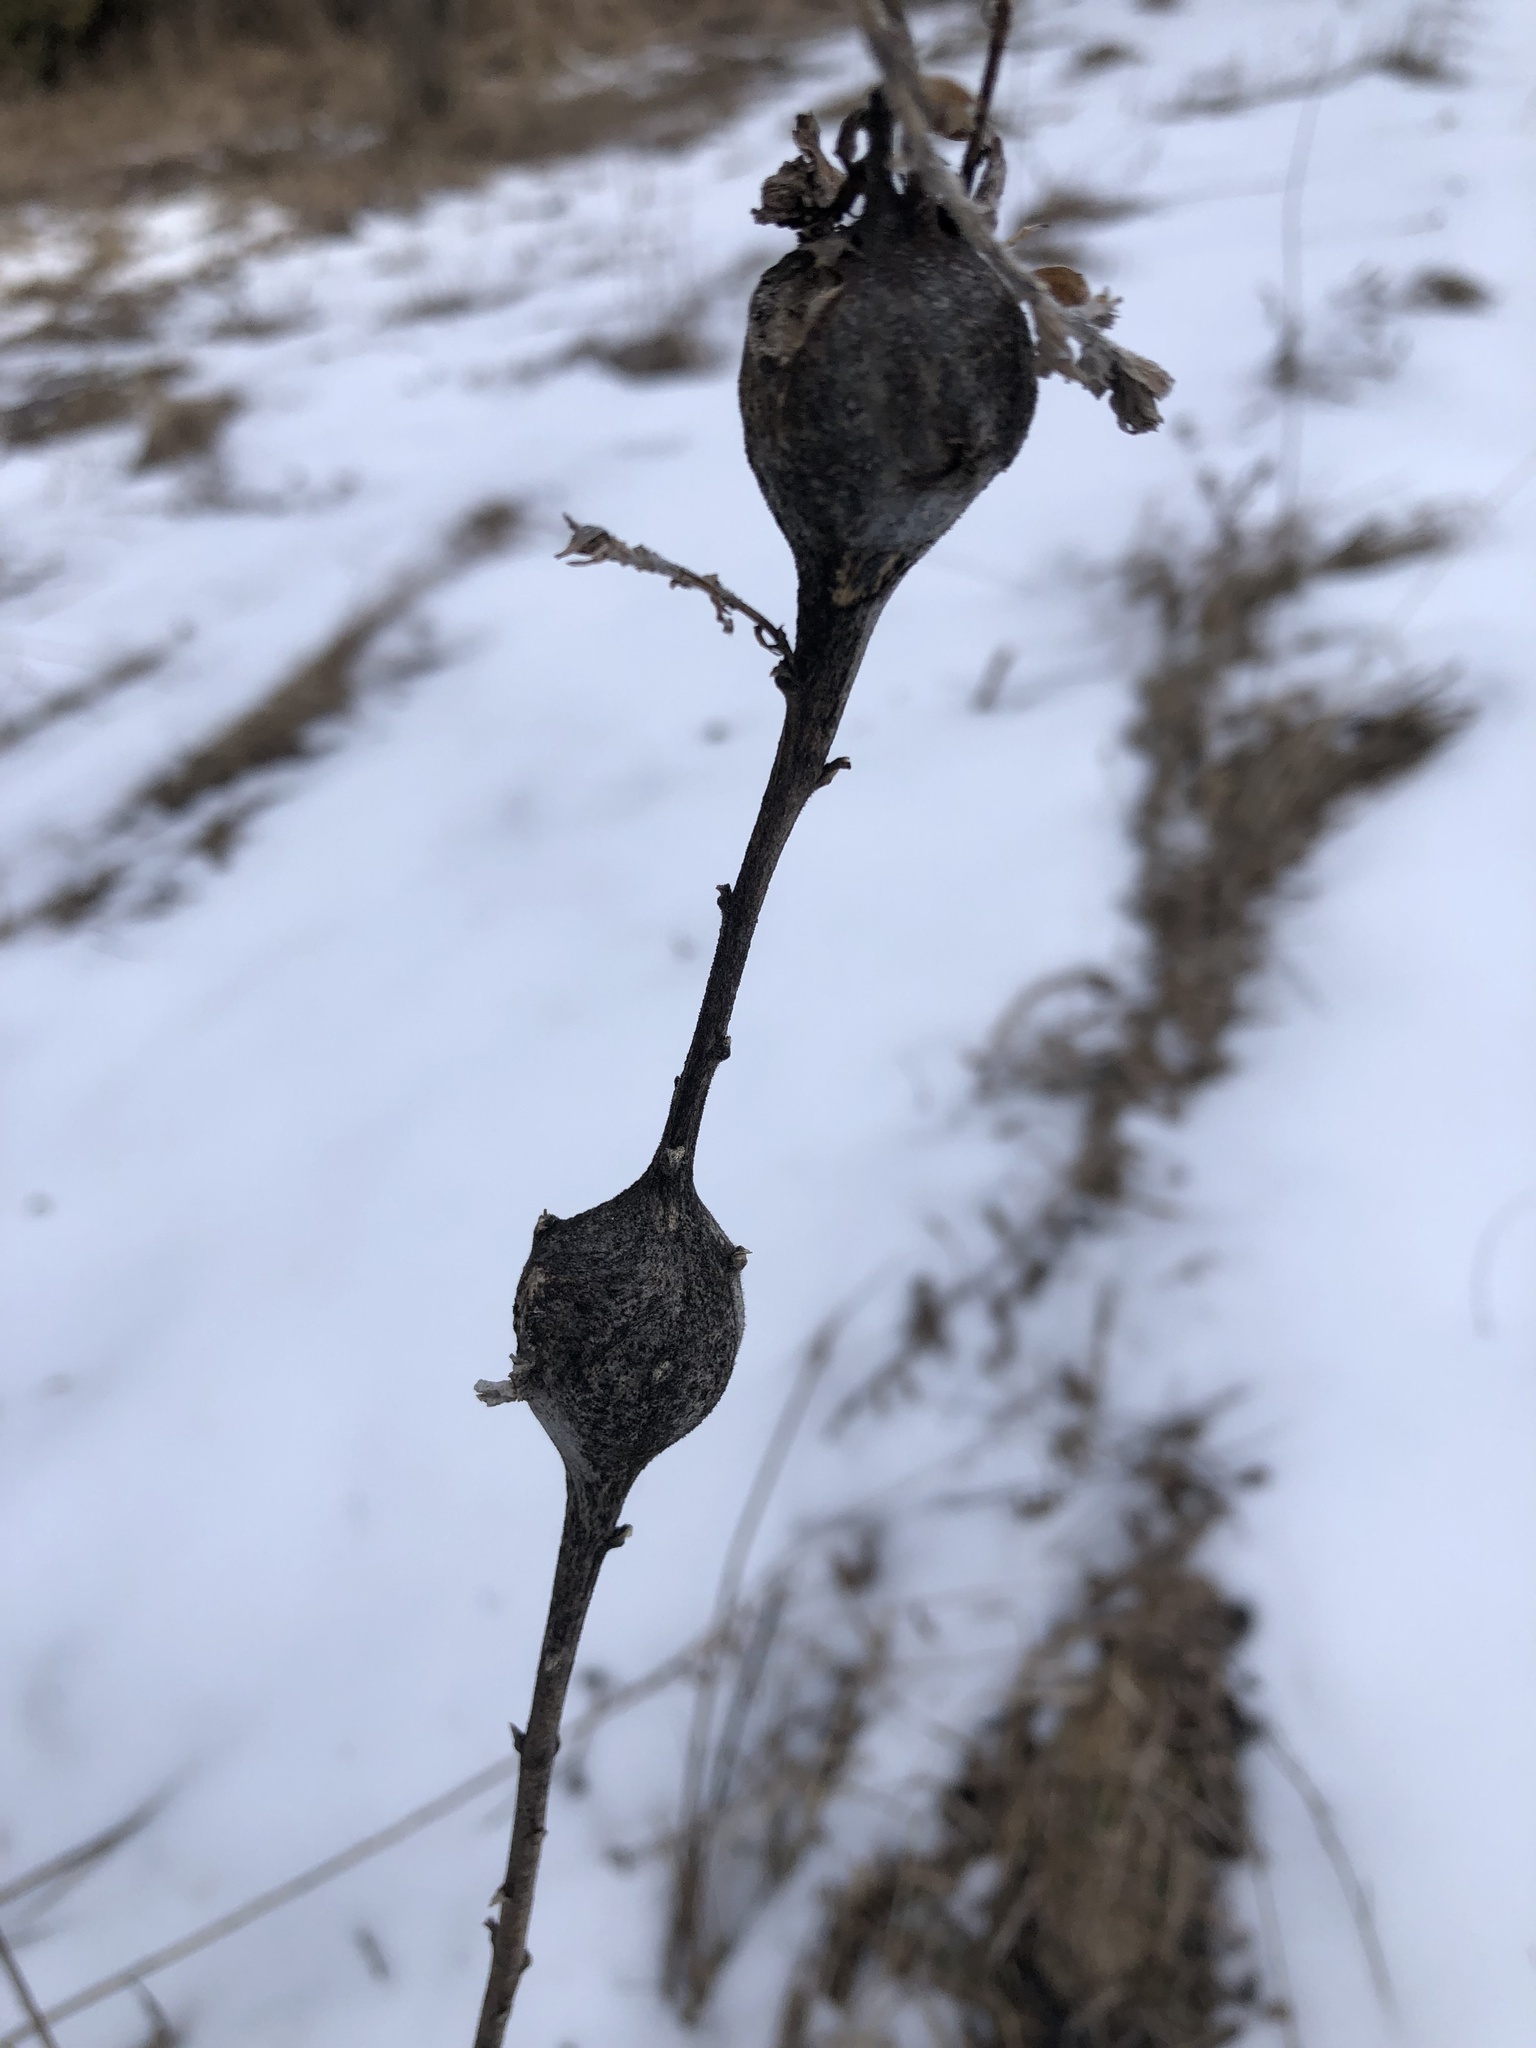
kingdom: Animalia
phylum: Arthropoda
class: Insecta
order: Diptera
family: Tephritidae
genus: Eurosta
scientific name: Eurosta solidaginis
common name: Goldenrod gall fly
